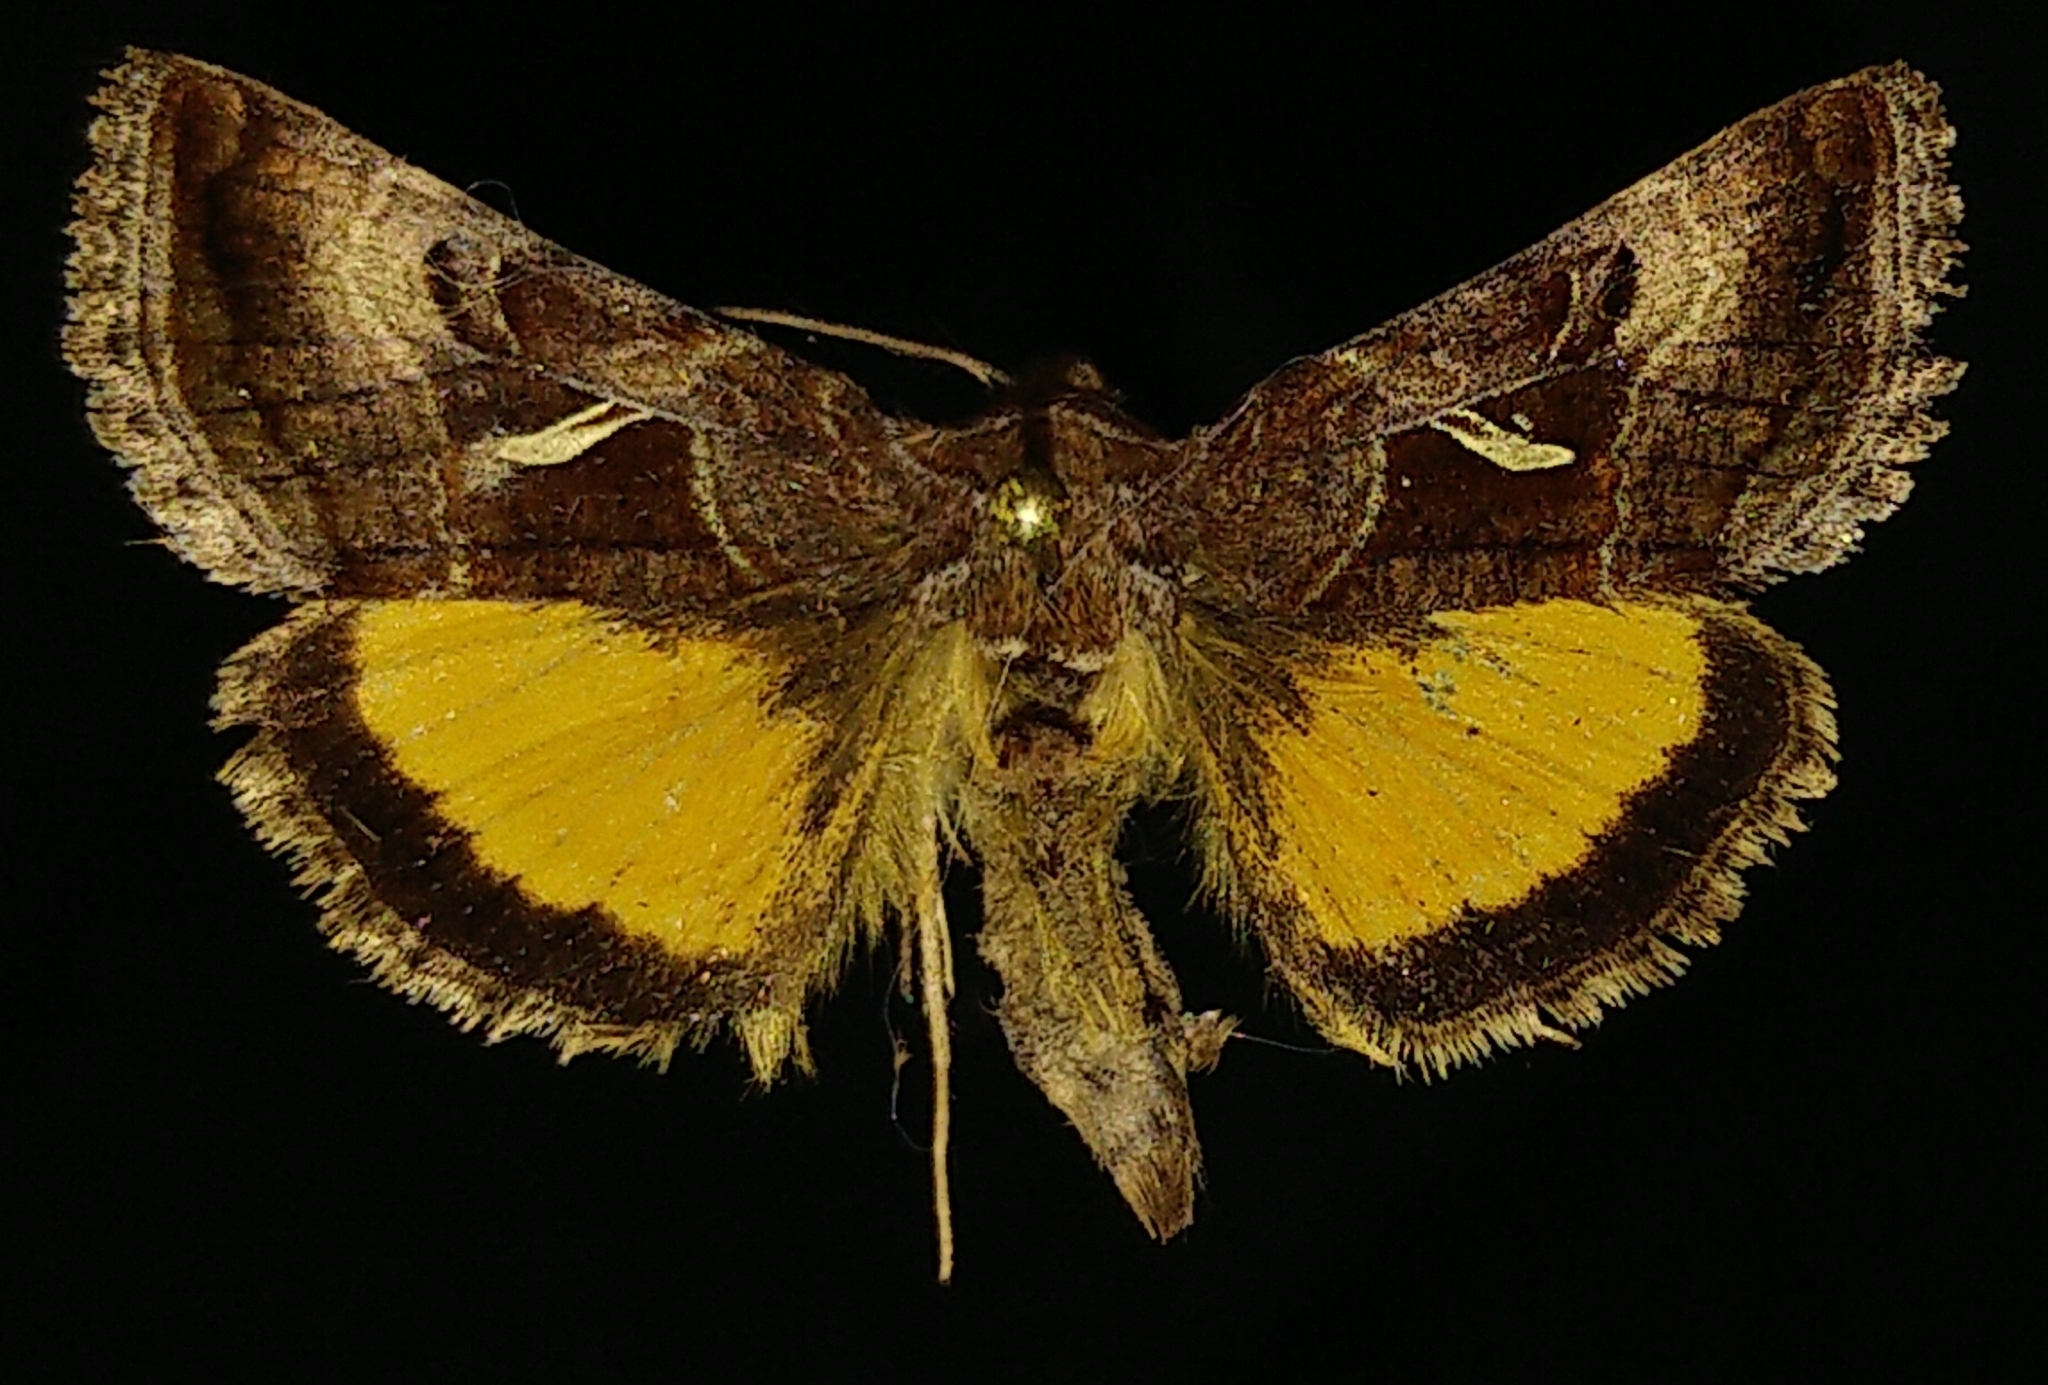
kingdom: Animalia
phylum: Arthropoda
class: Insecta
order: Lepidoptera
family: Noctuidae
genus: Syngrapha
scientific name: Syngrapha ignea
